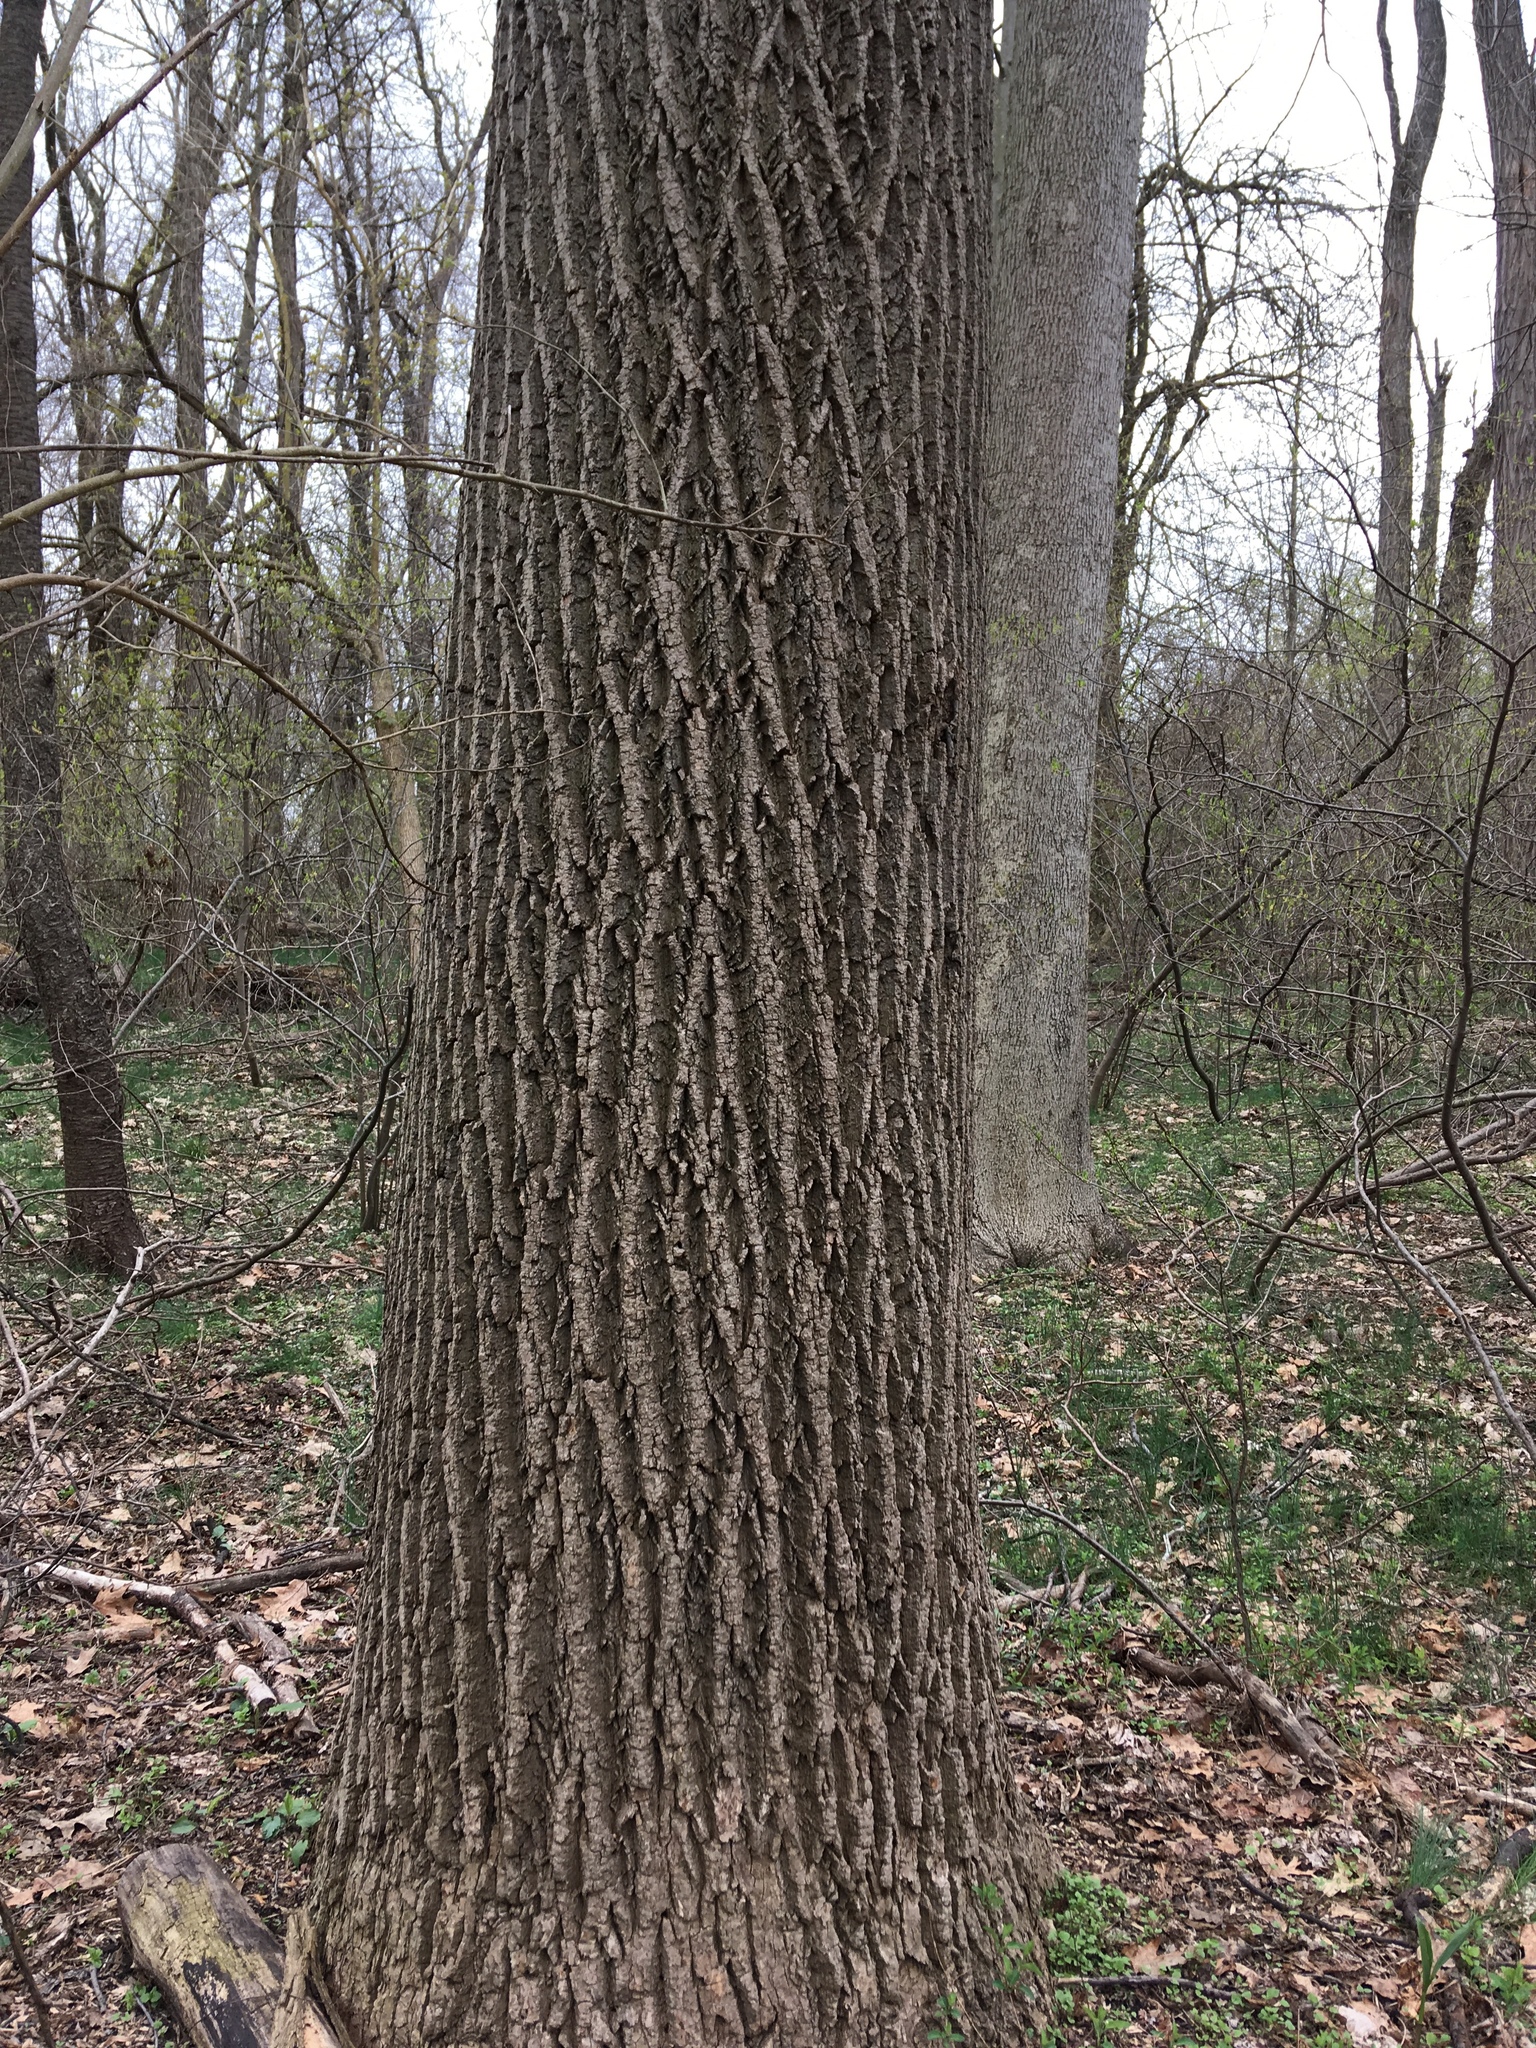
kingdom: Plantae
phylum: Tracheophyta
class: Magnoliopsida
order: Magnoliales
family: Magnoliaceae
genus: Liriodendron
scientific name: Liriodendron tulipifera
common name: Tulip tree
